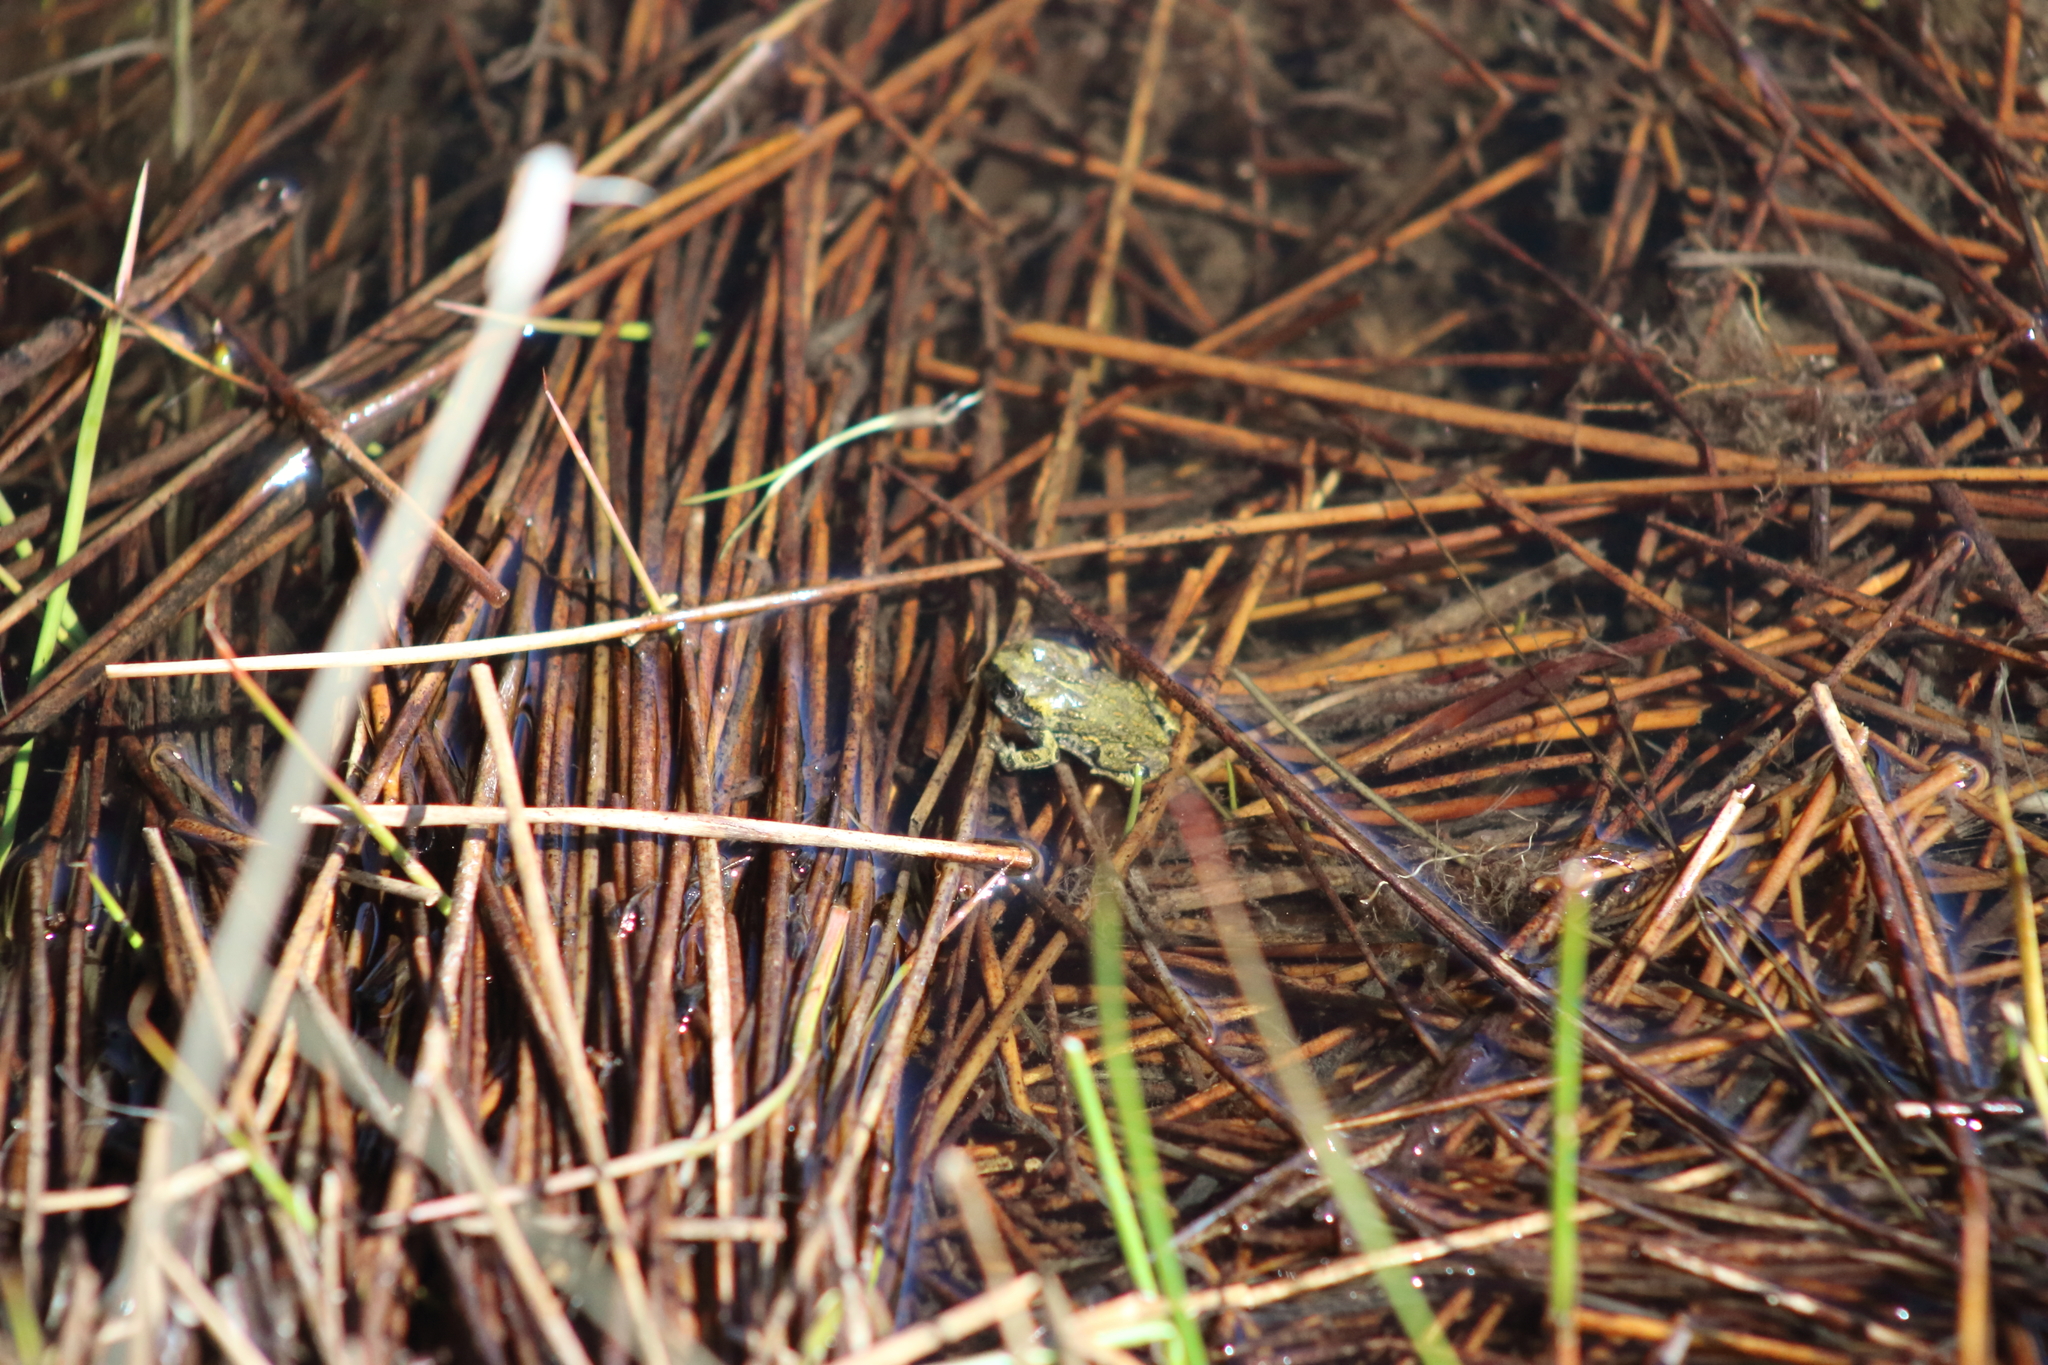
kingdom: Animalia
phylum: Chordata
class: Amphibia
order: Anura
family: Bufonidae
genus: Anaxyrus
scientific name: Anaxyrus boreas
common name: Western toad
